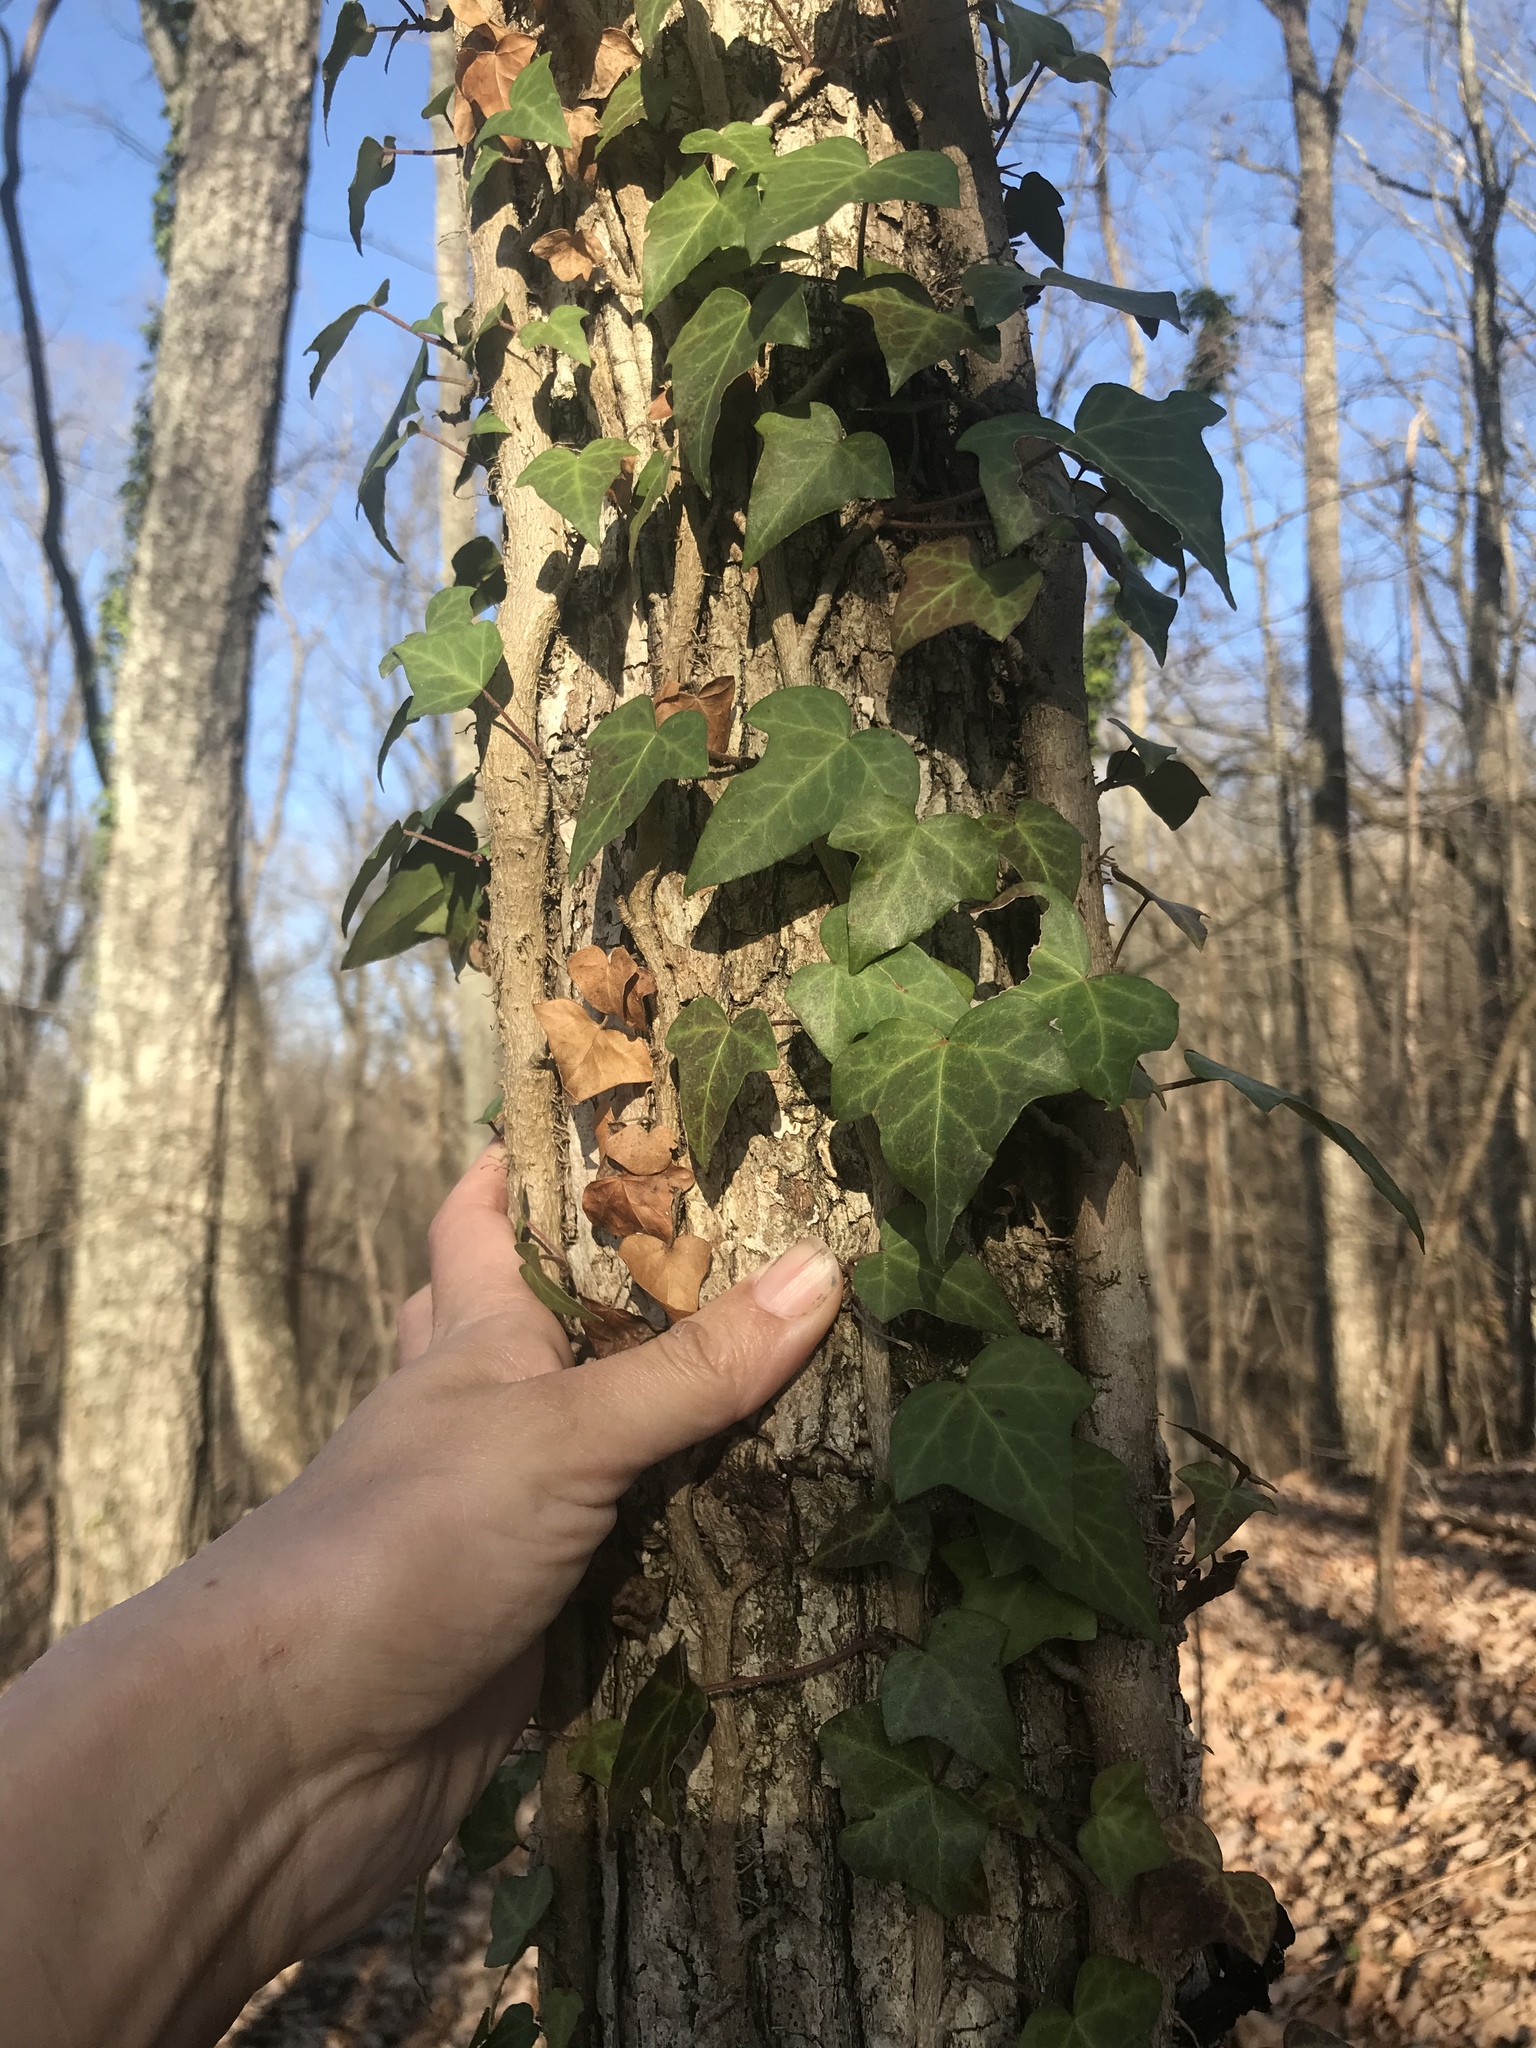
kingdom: Plantae
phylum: Tracheophyta
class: Magnoliopsida
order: Apiales
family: Araliaceae
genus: Hedera
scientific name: Hedera helix
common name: Ivy
